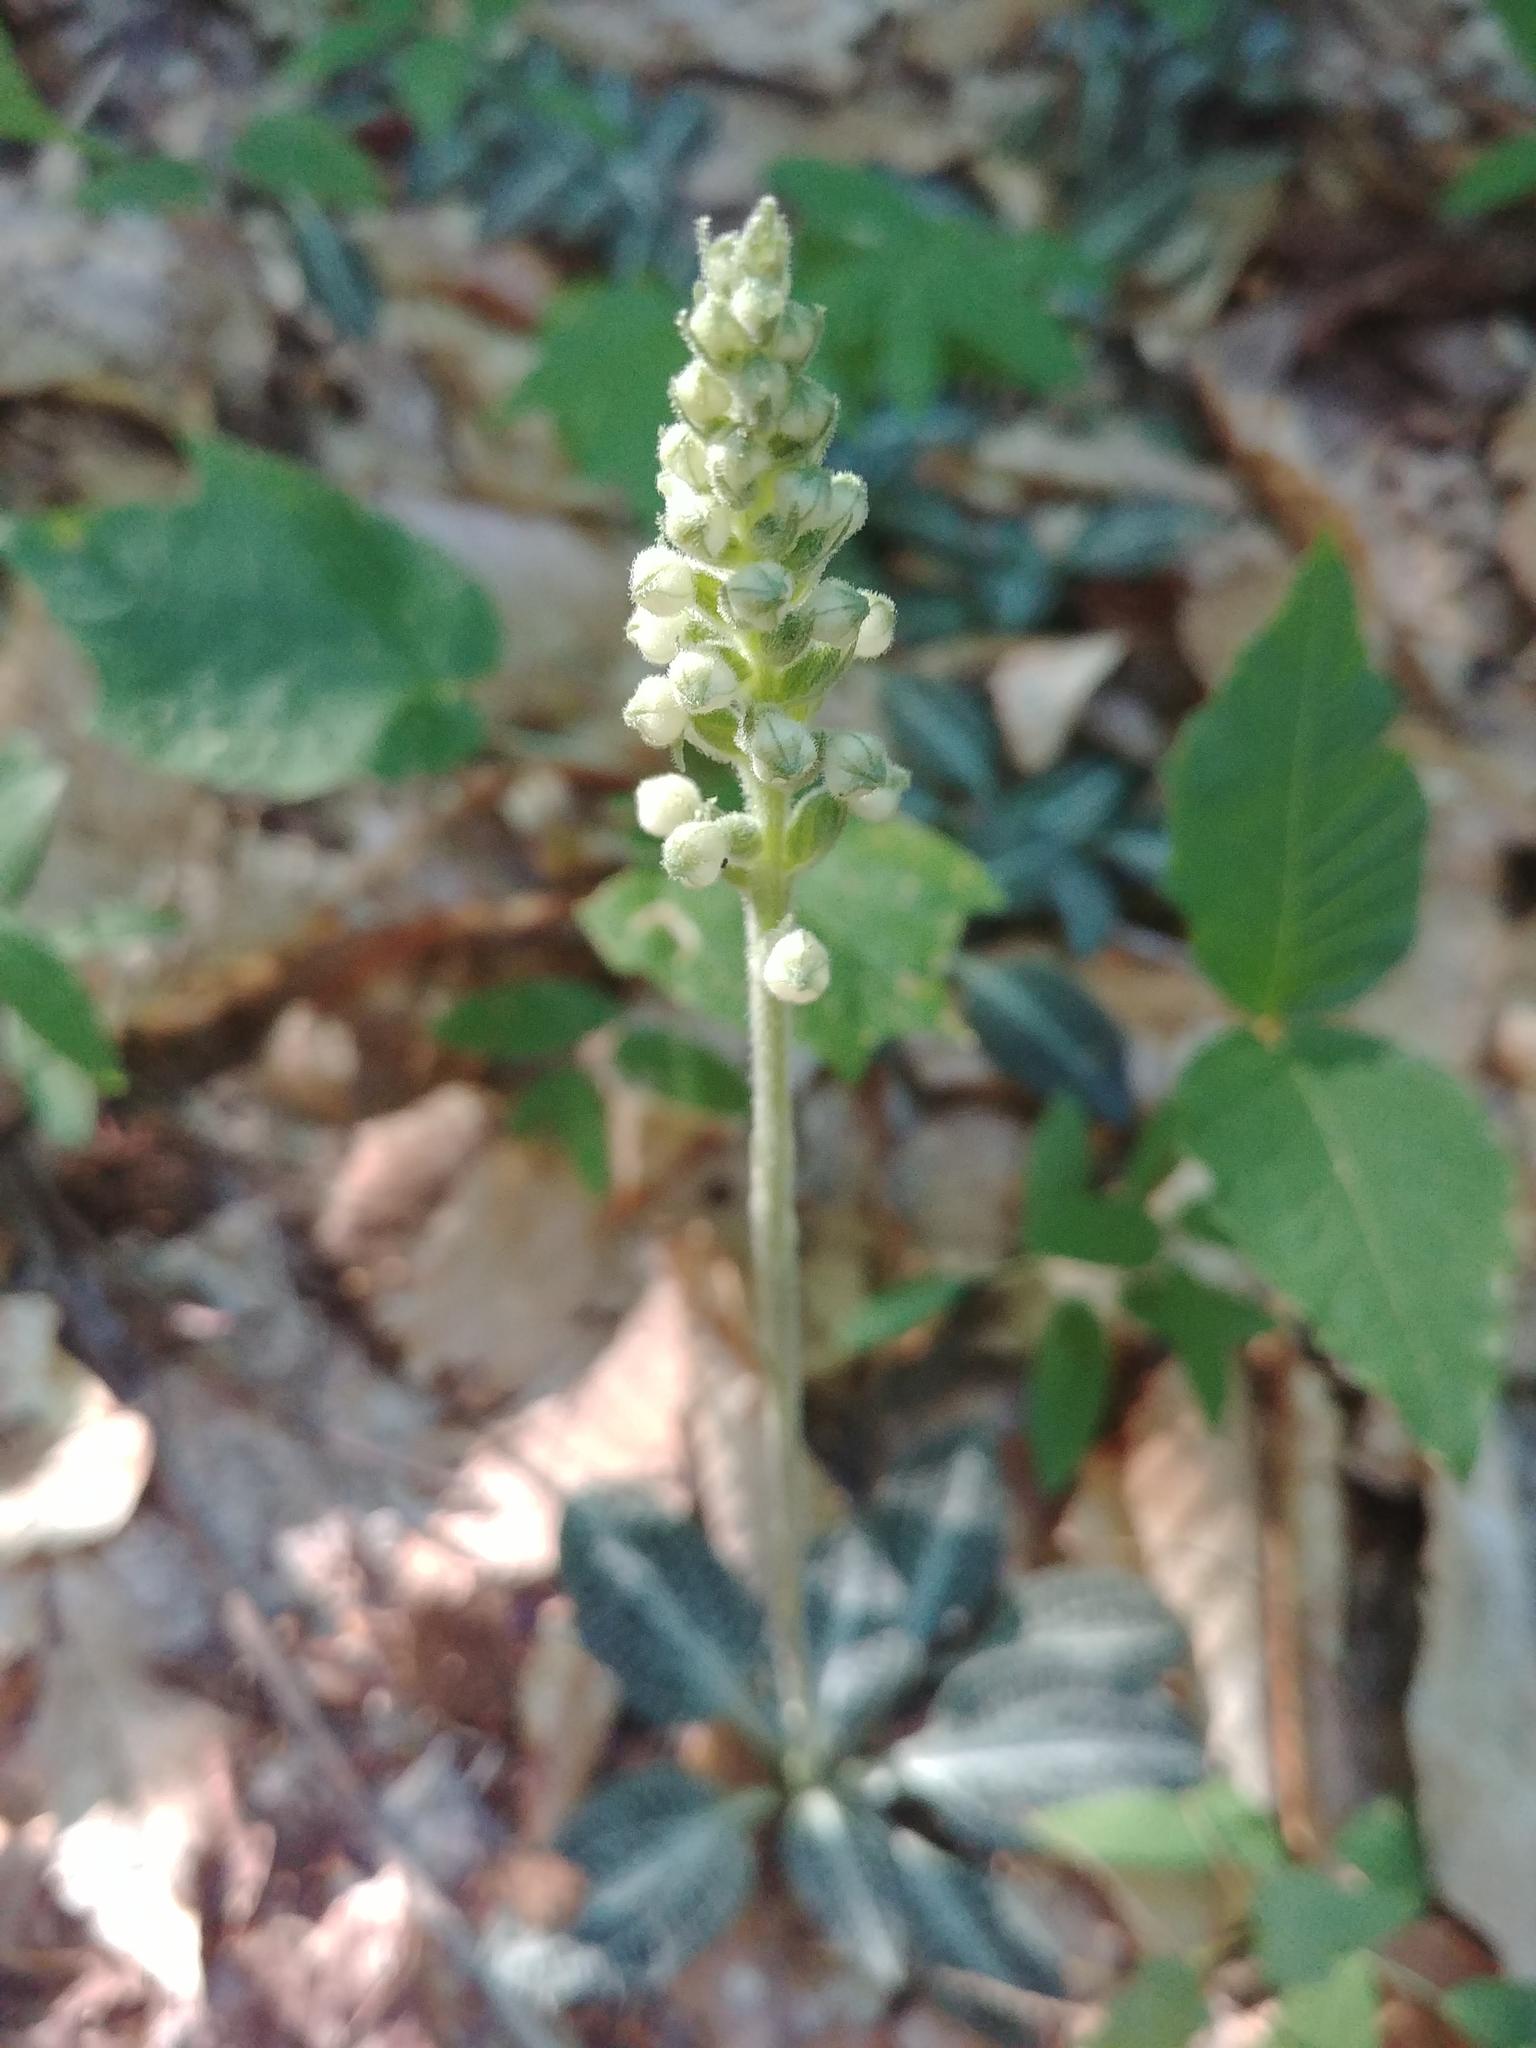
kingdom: Plantae
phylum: Tracheophyta
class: Liliopsida
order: Asparagales
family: Orchidaceae
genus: Goodyera
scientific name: Goodyera pubescens
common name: Downy rattlesnake-plantain
